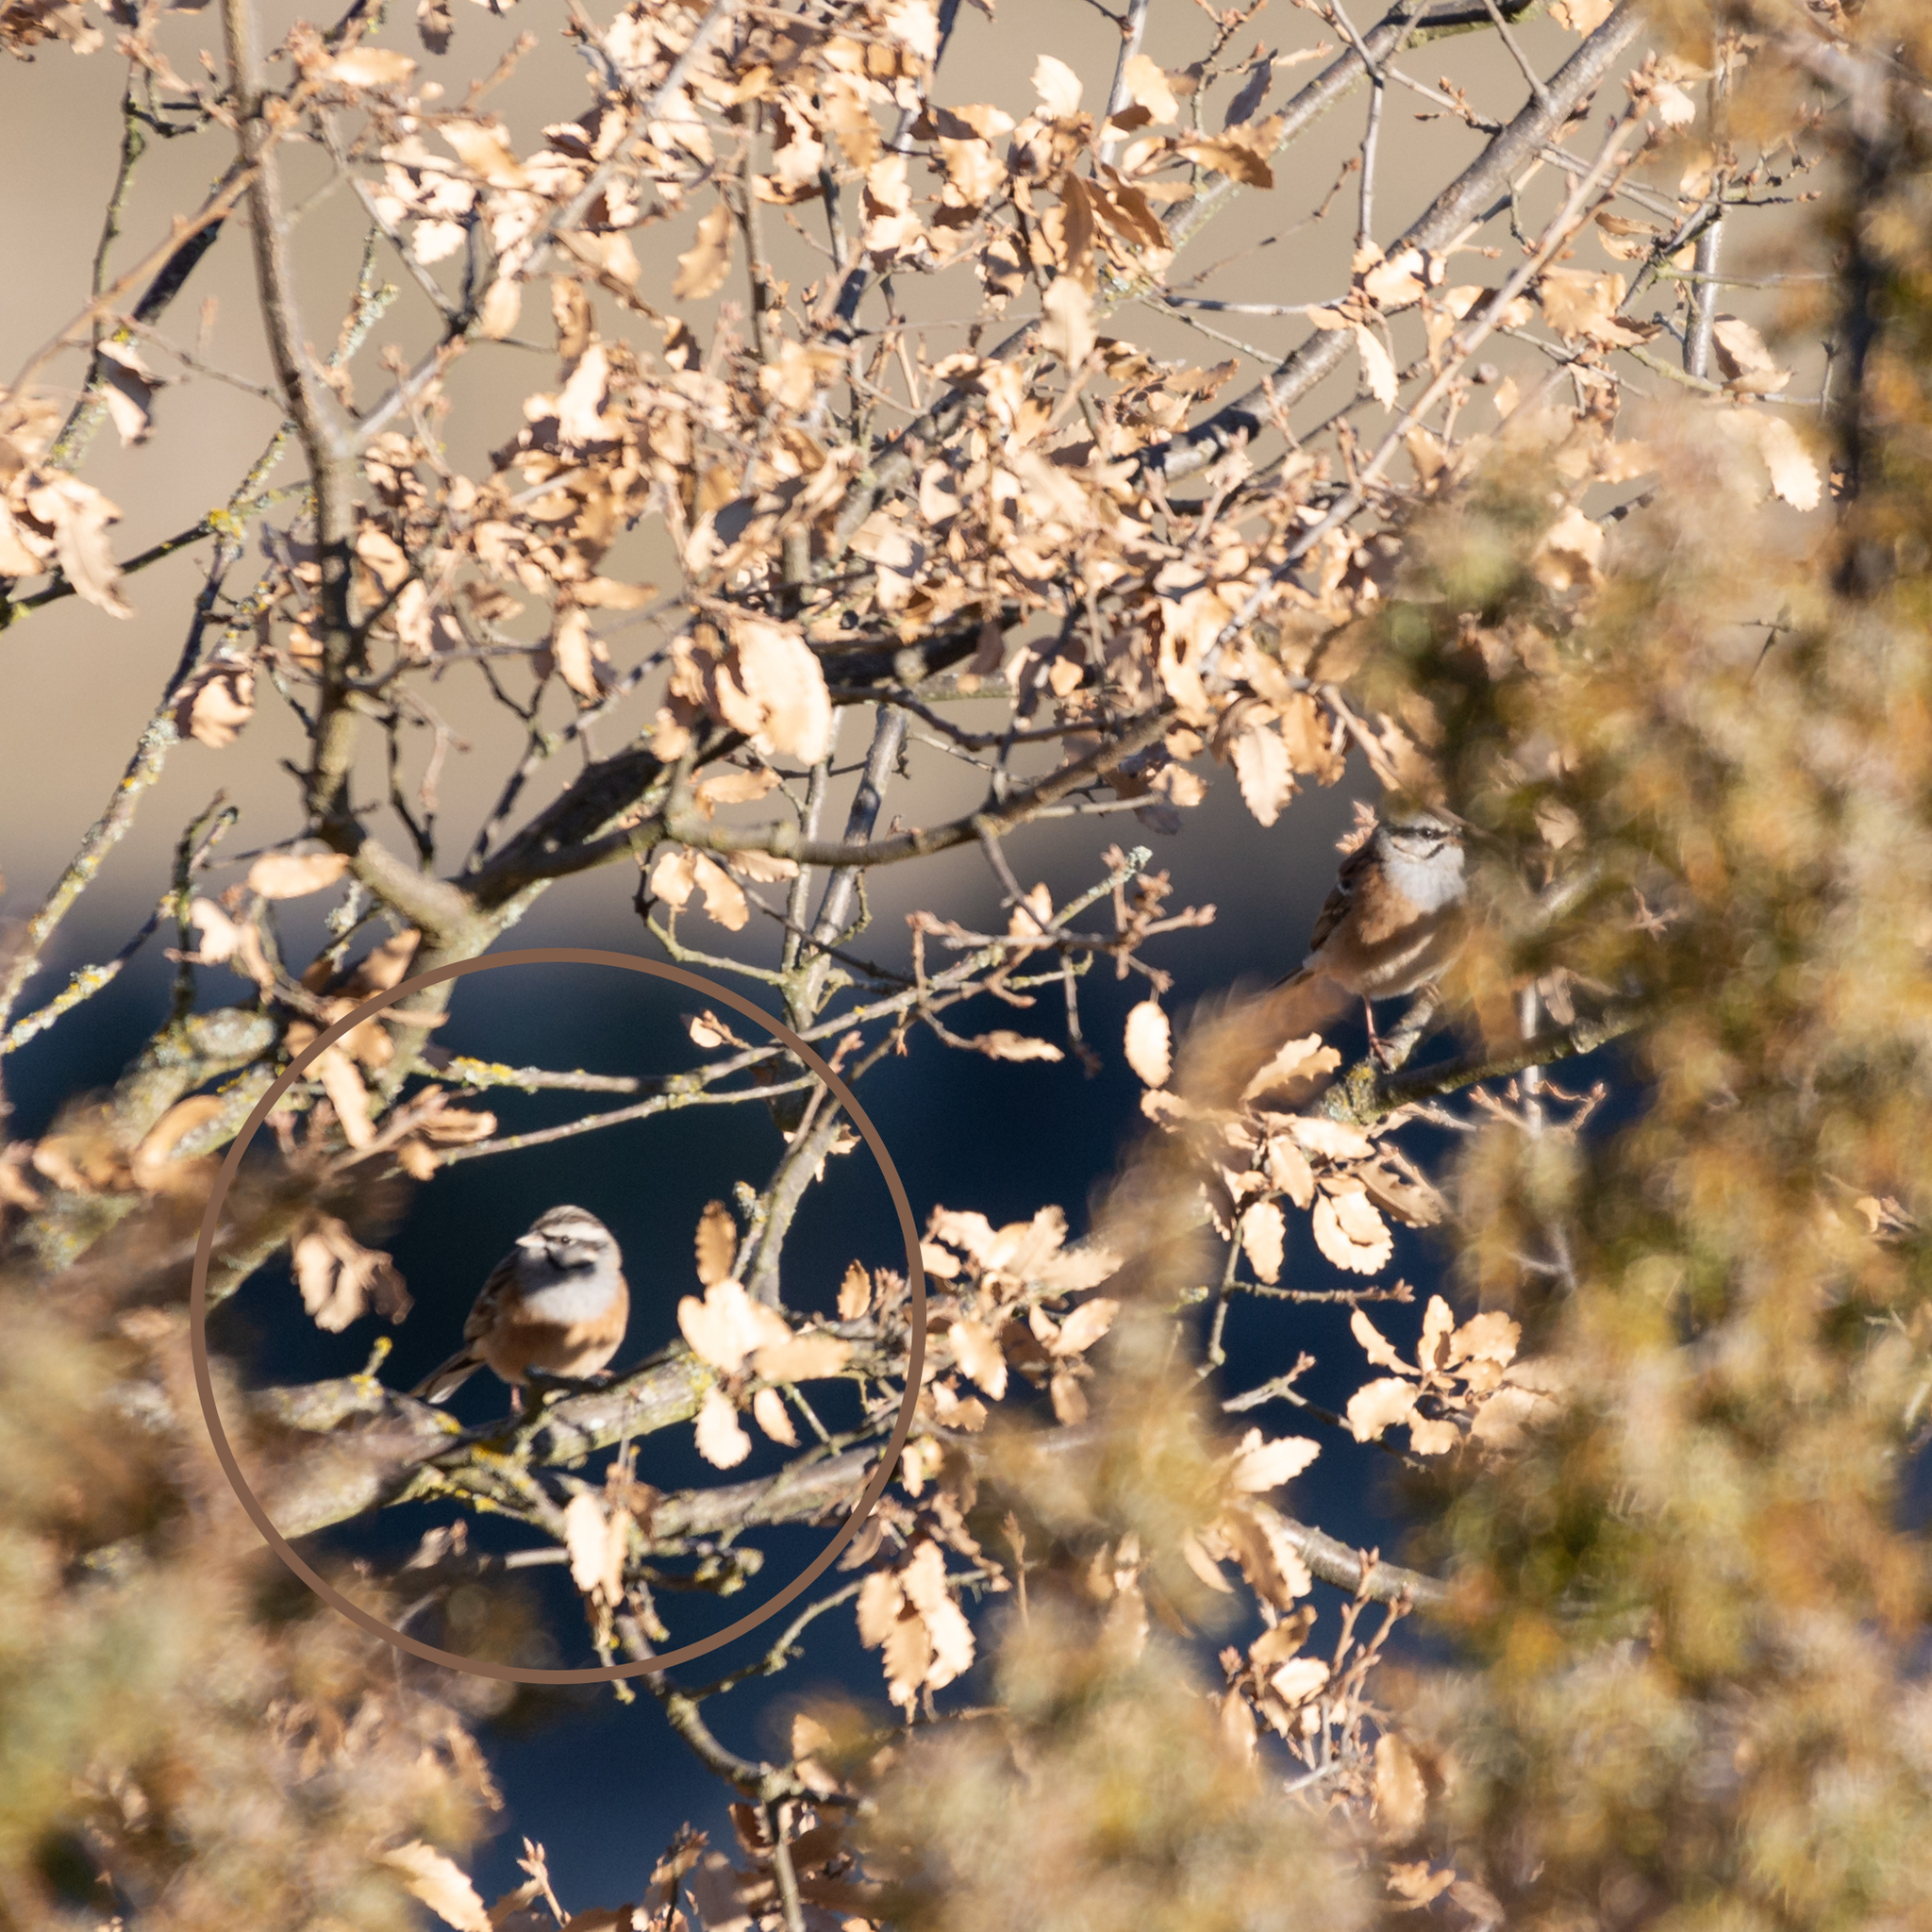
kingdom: Animalia
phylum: Chordata
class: Aves
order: Passeriformes
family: Emberizidae
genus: Emberiza
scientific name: Emberiza cia
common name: Rock bunting
